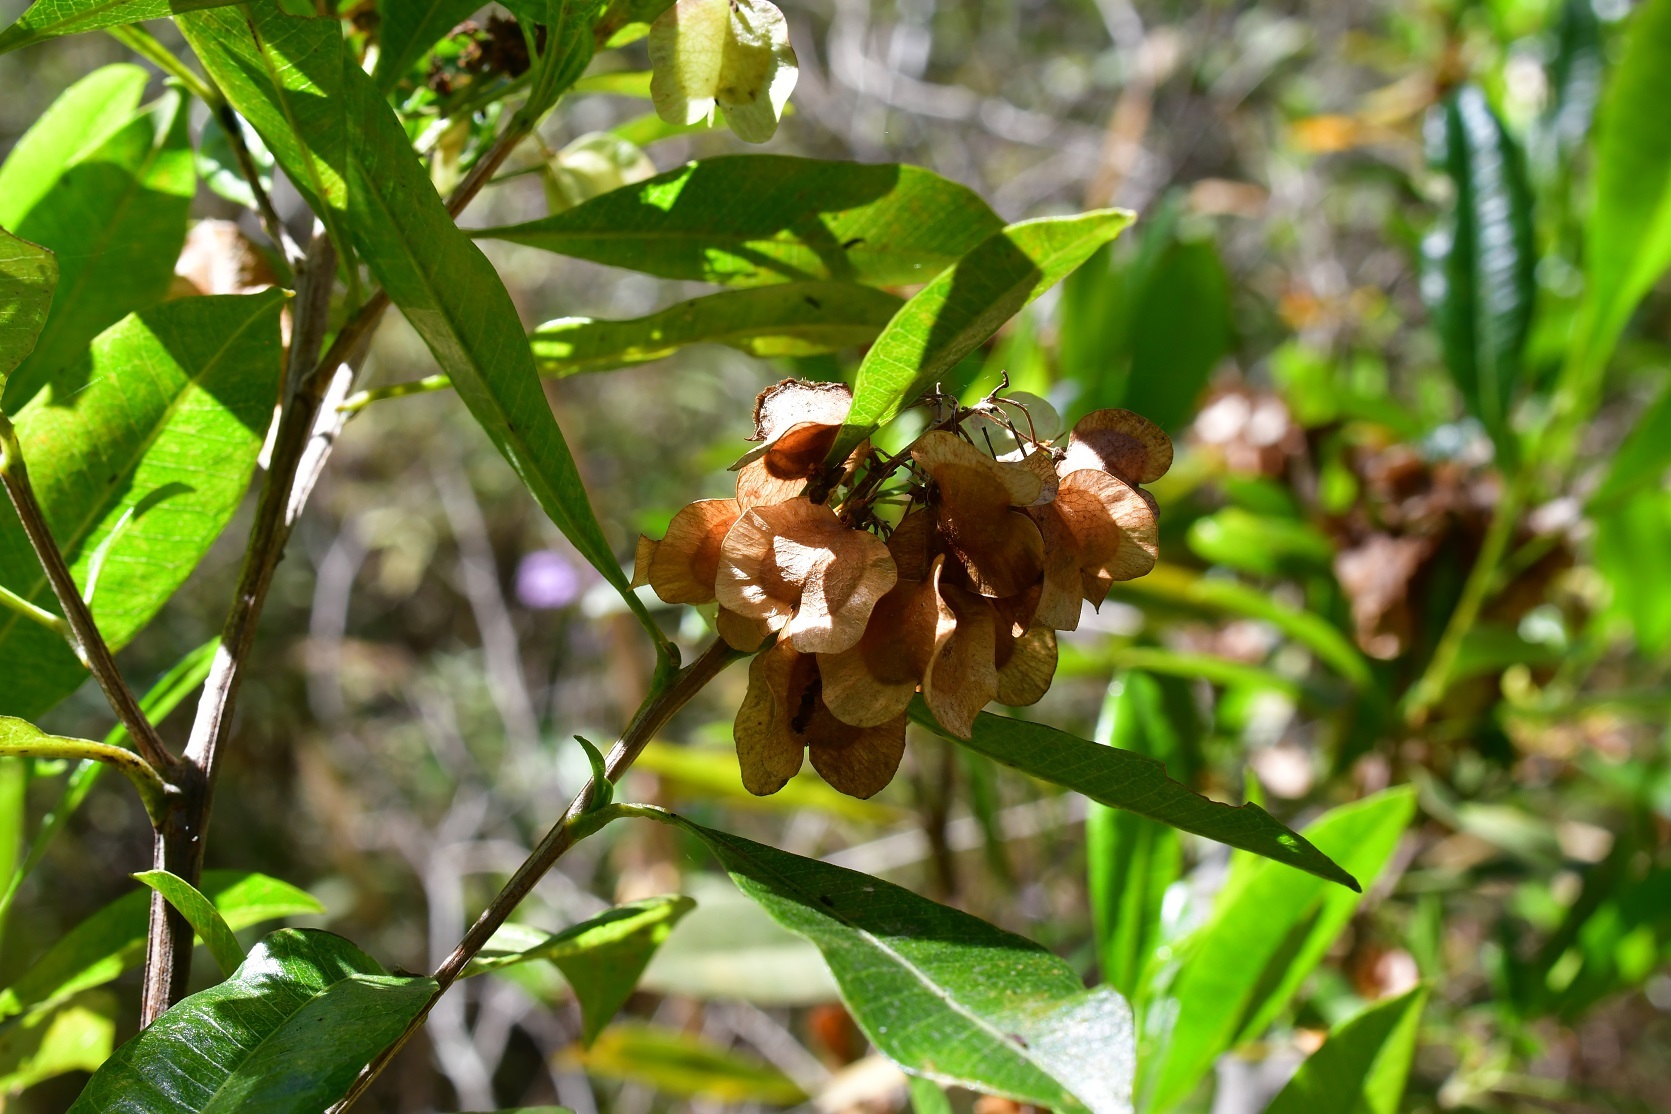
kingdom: Plantae
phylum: Tracheophyta
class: Magnoliopsida
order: Sapindales
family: Sapindaceae
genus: Dodonaea
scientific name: Dodonaea viscosa
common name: Hopbush
